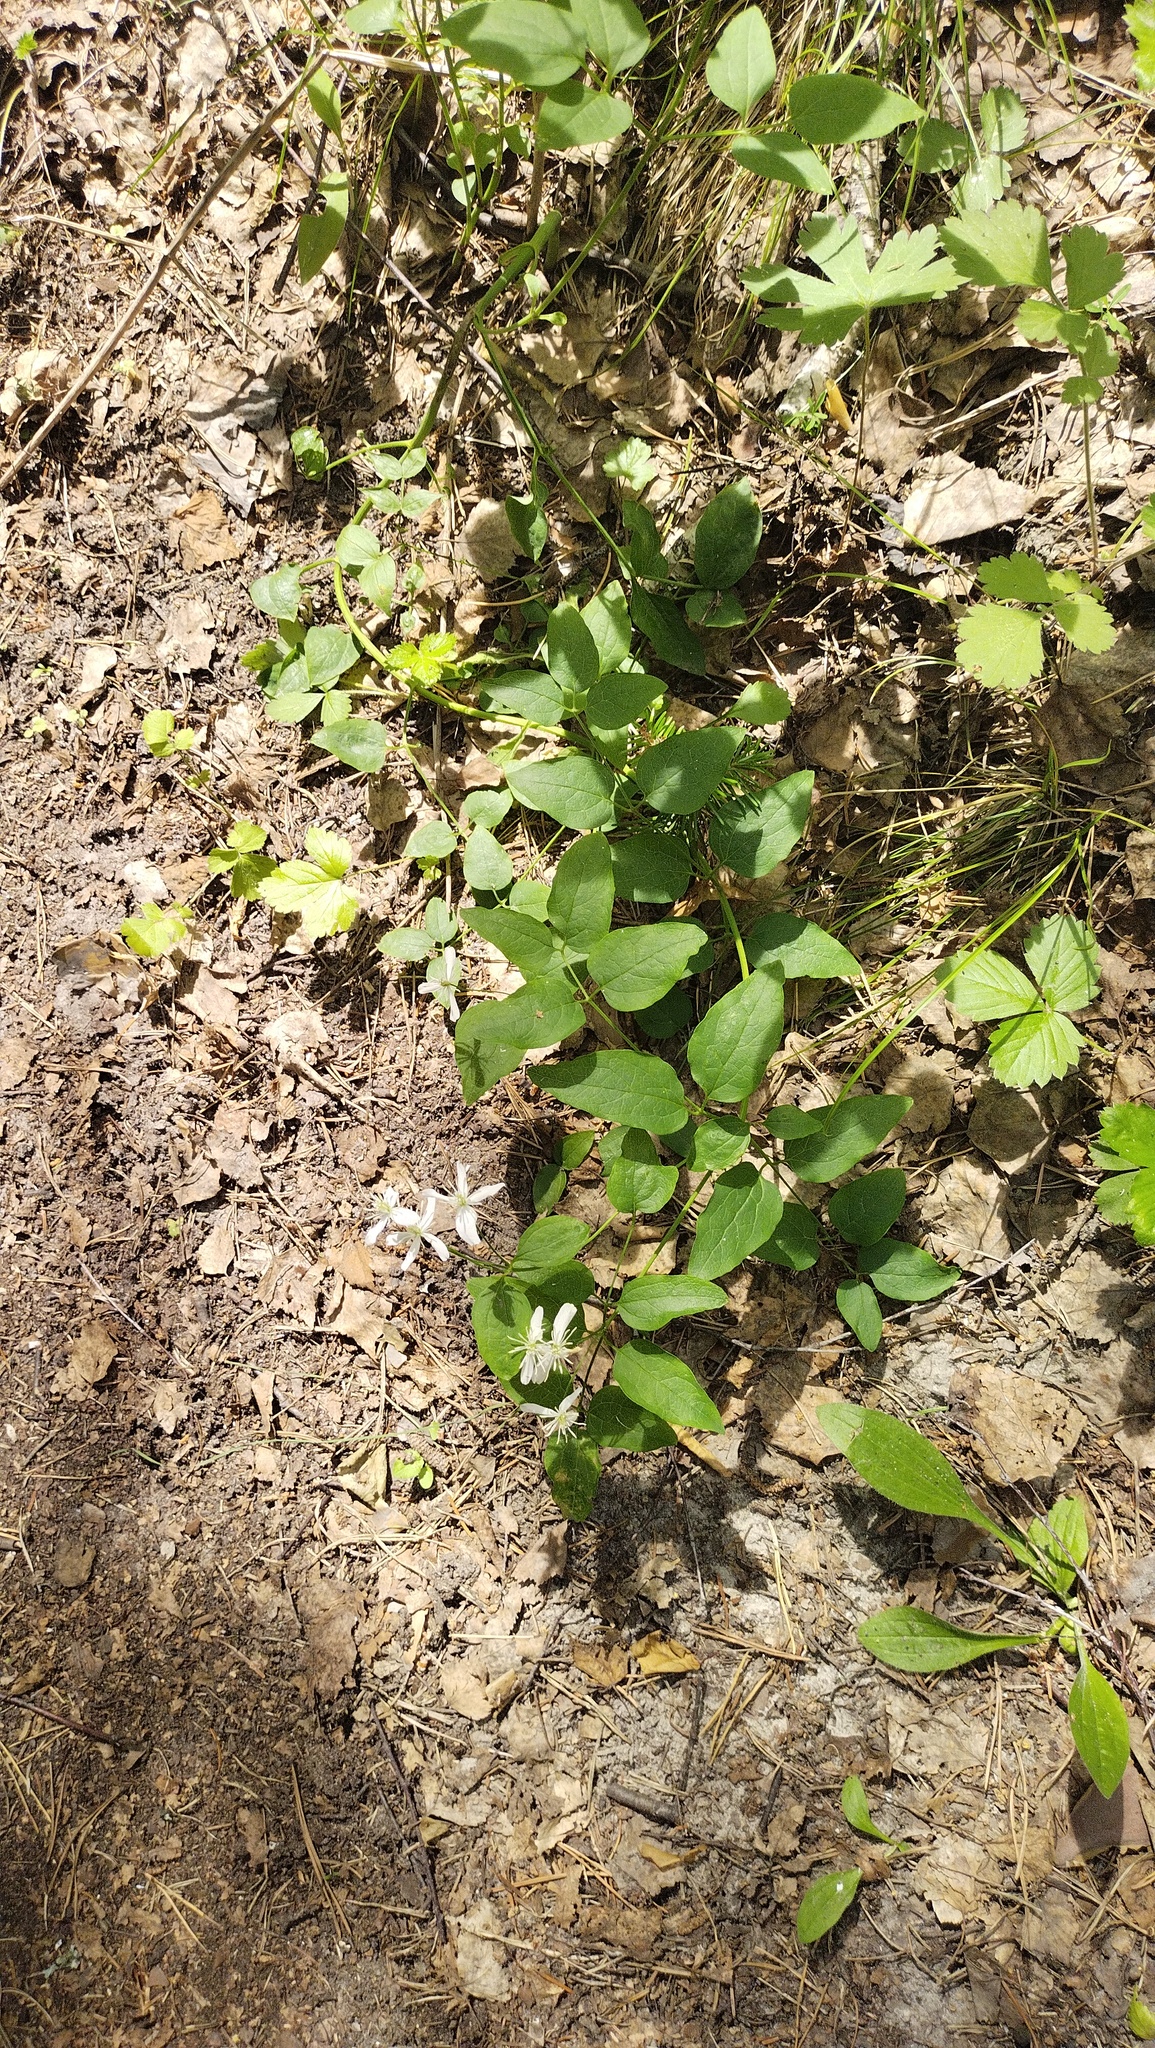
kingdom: Plantae
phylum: Tracheophyta
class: Magnoliopsida
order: Ranunculales
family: Ranunculaceae
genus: Clematis
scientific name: Clematis terniflora
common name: Sweet autumn clematis
